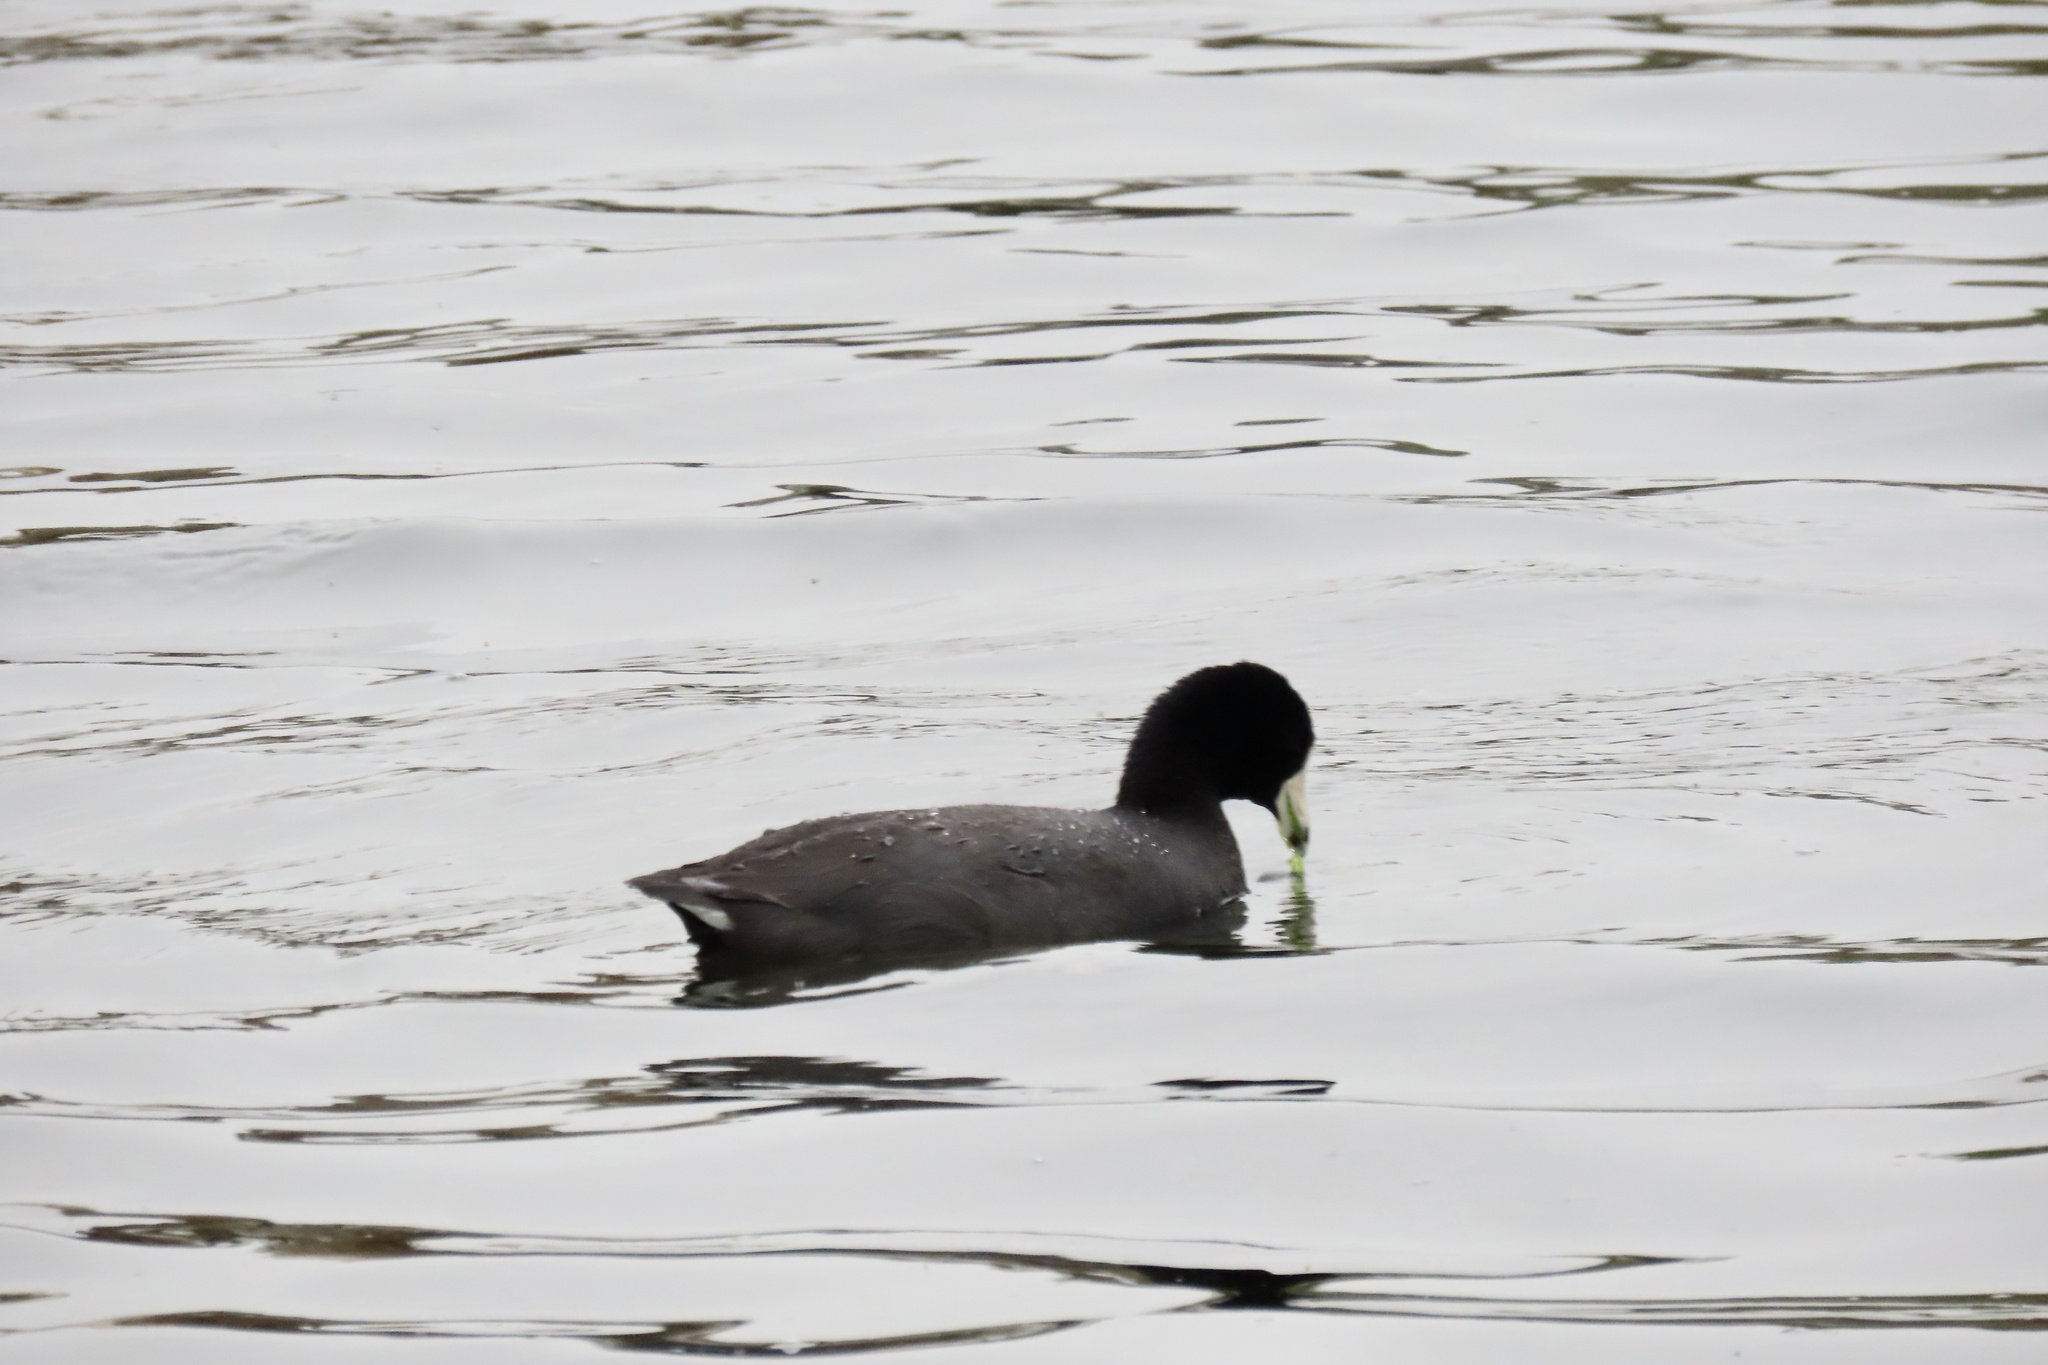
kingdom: Animalia
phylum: Chordata
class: Aves
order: Gruiformes
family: Rallidae
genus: Fulica
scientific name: Fulica americana
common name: American coot
